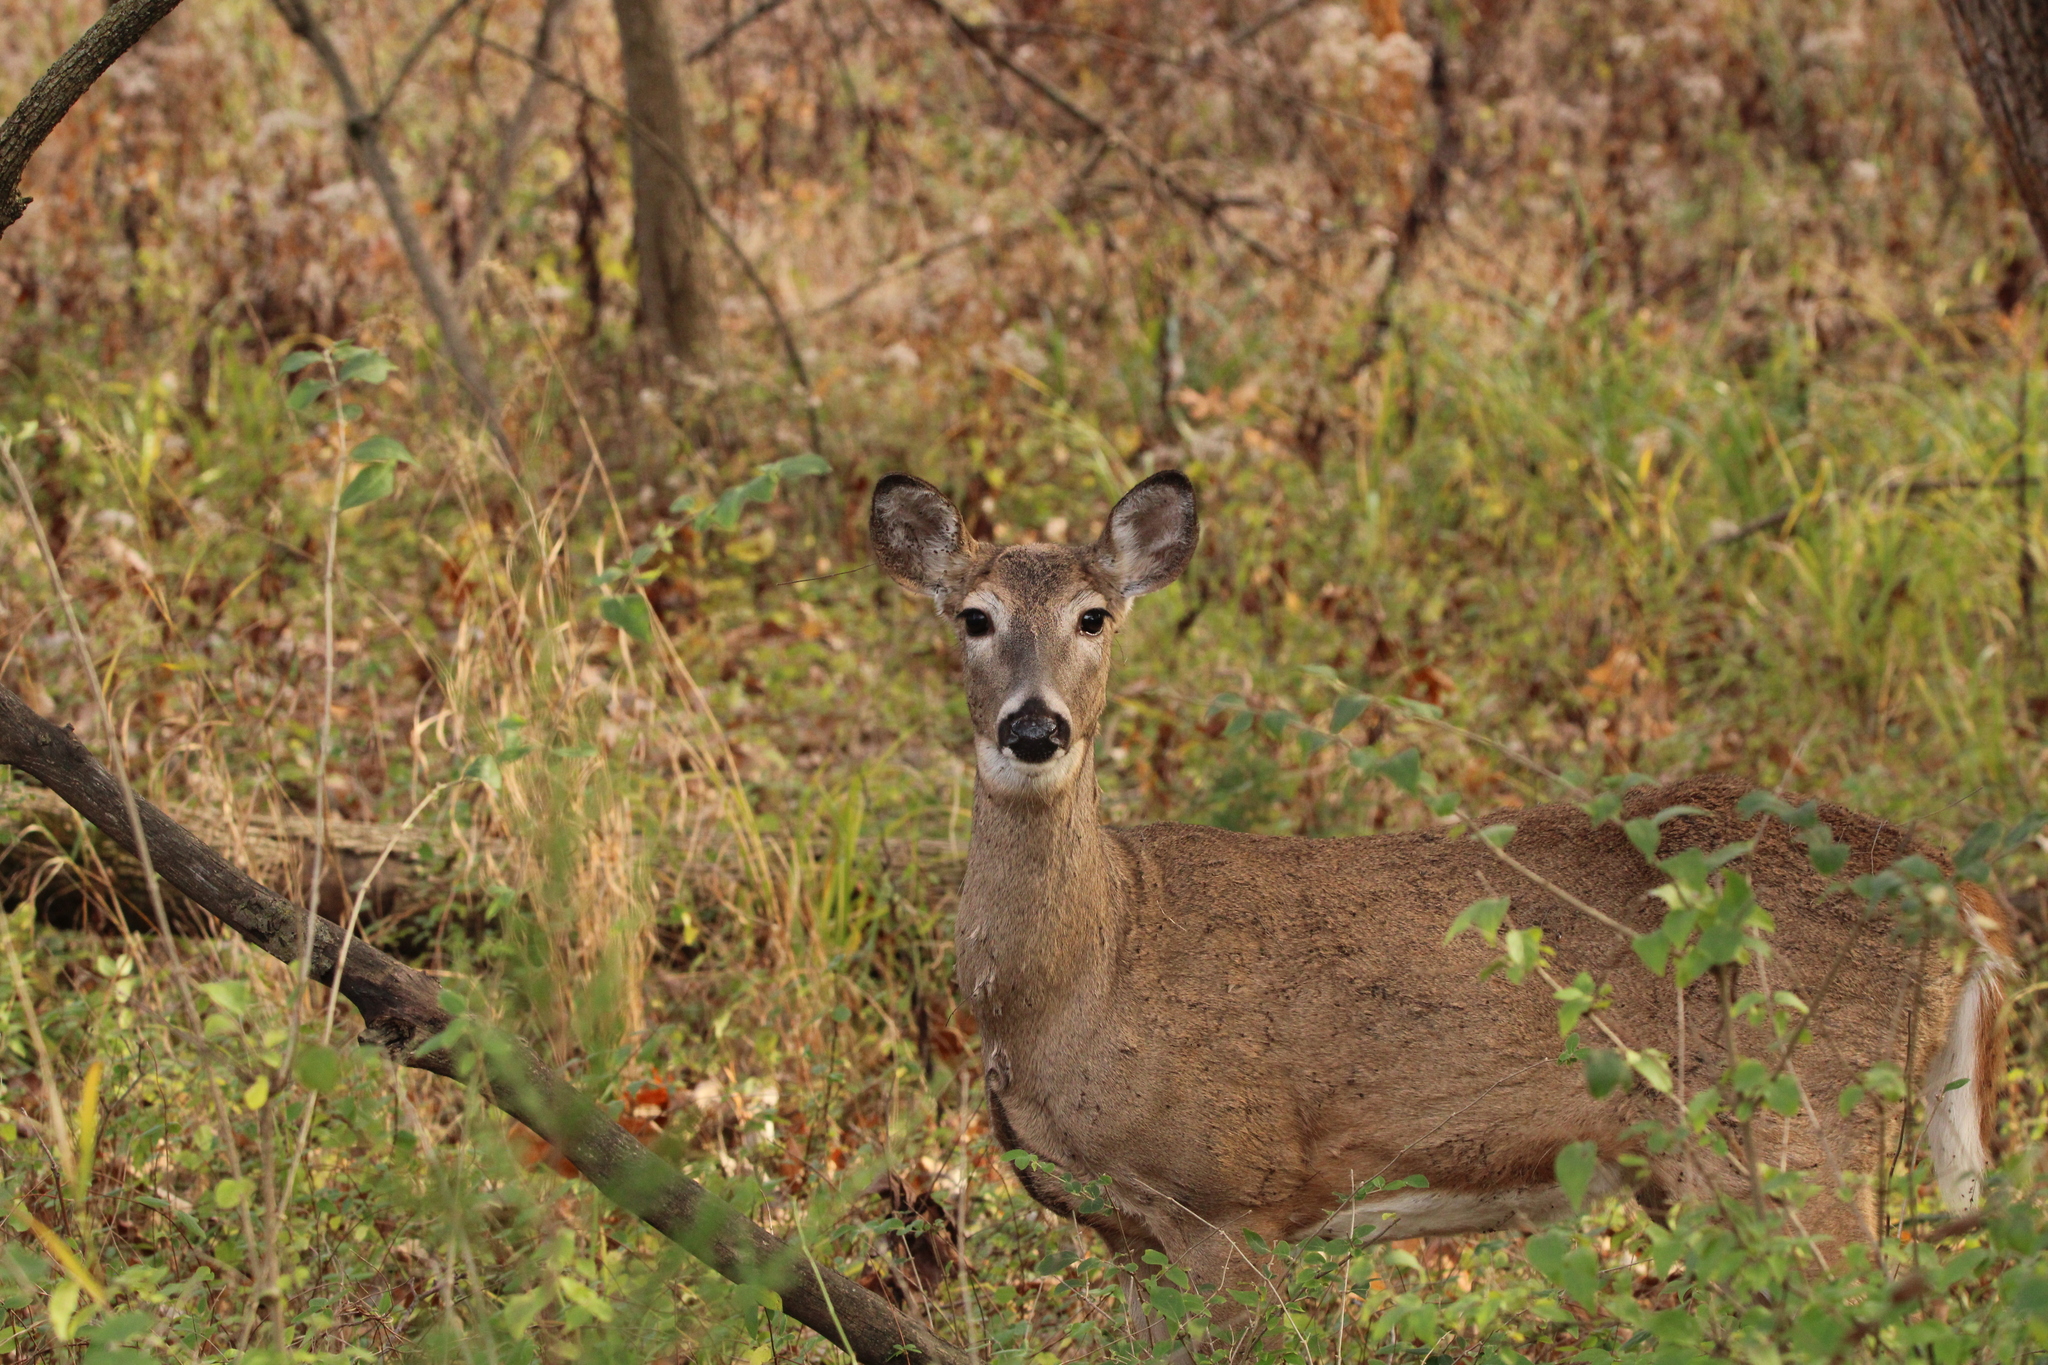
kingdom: Animalia
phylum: Chordata
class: Mammalia
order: Artiodactyla
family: Cervidae
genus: Odocoileus
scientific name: Odocoileus virginianus
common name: White-tailed deer
